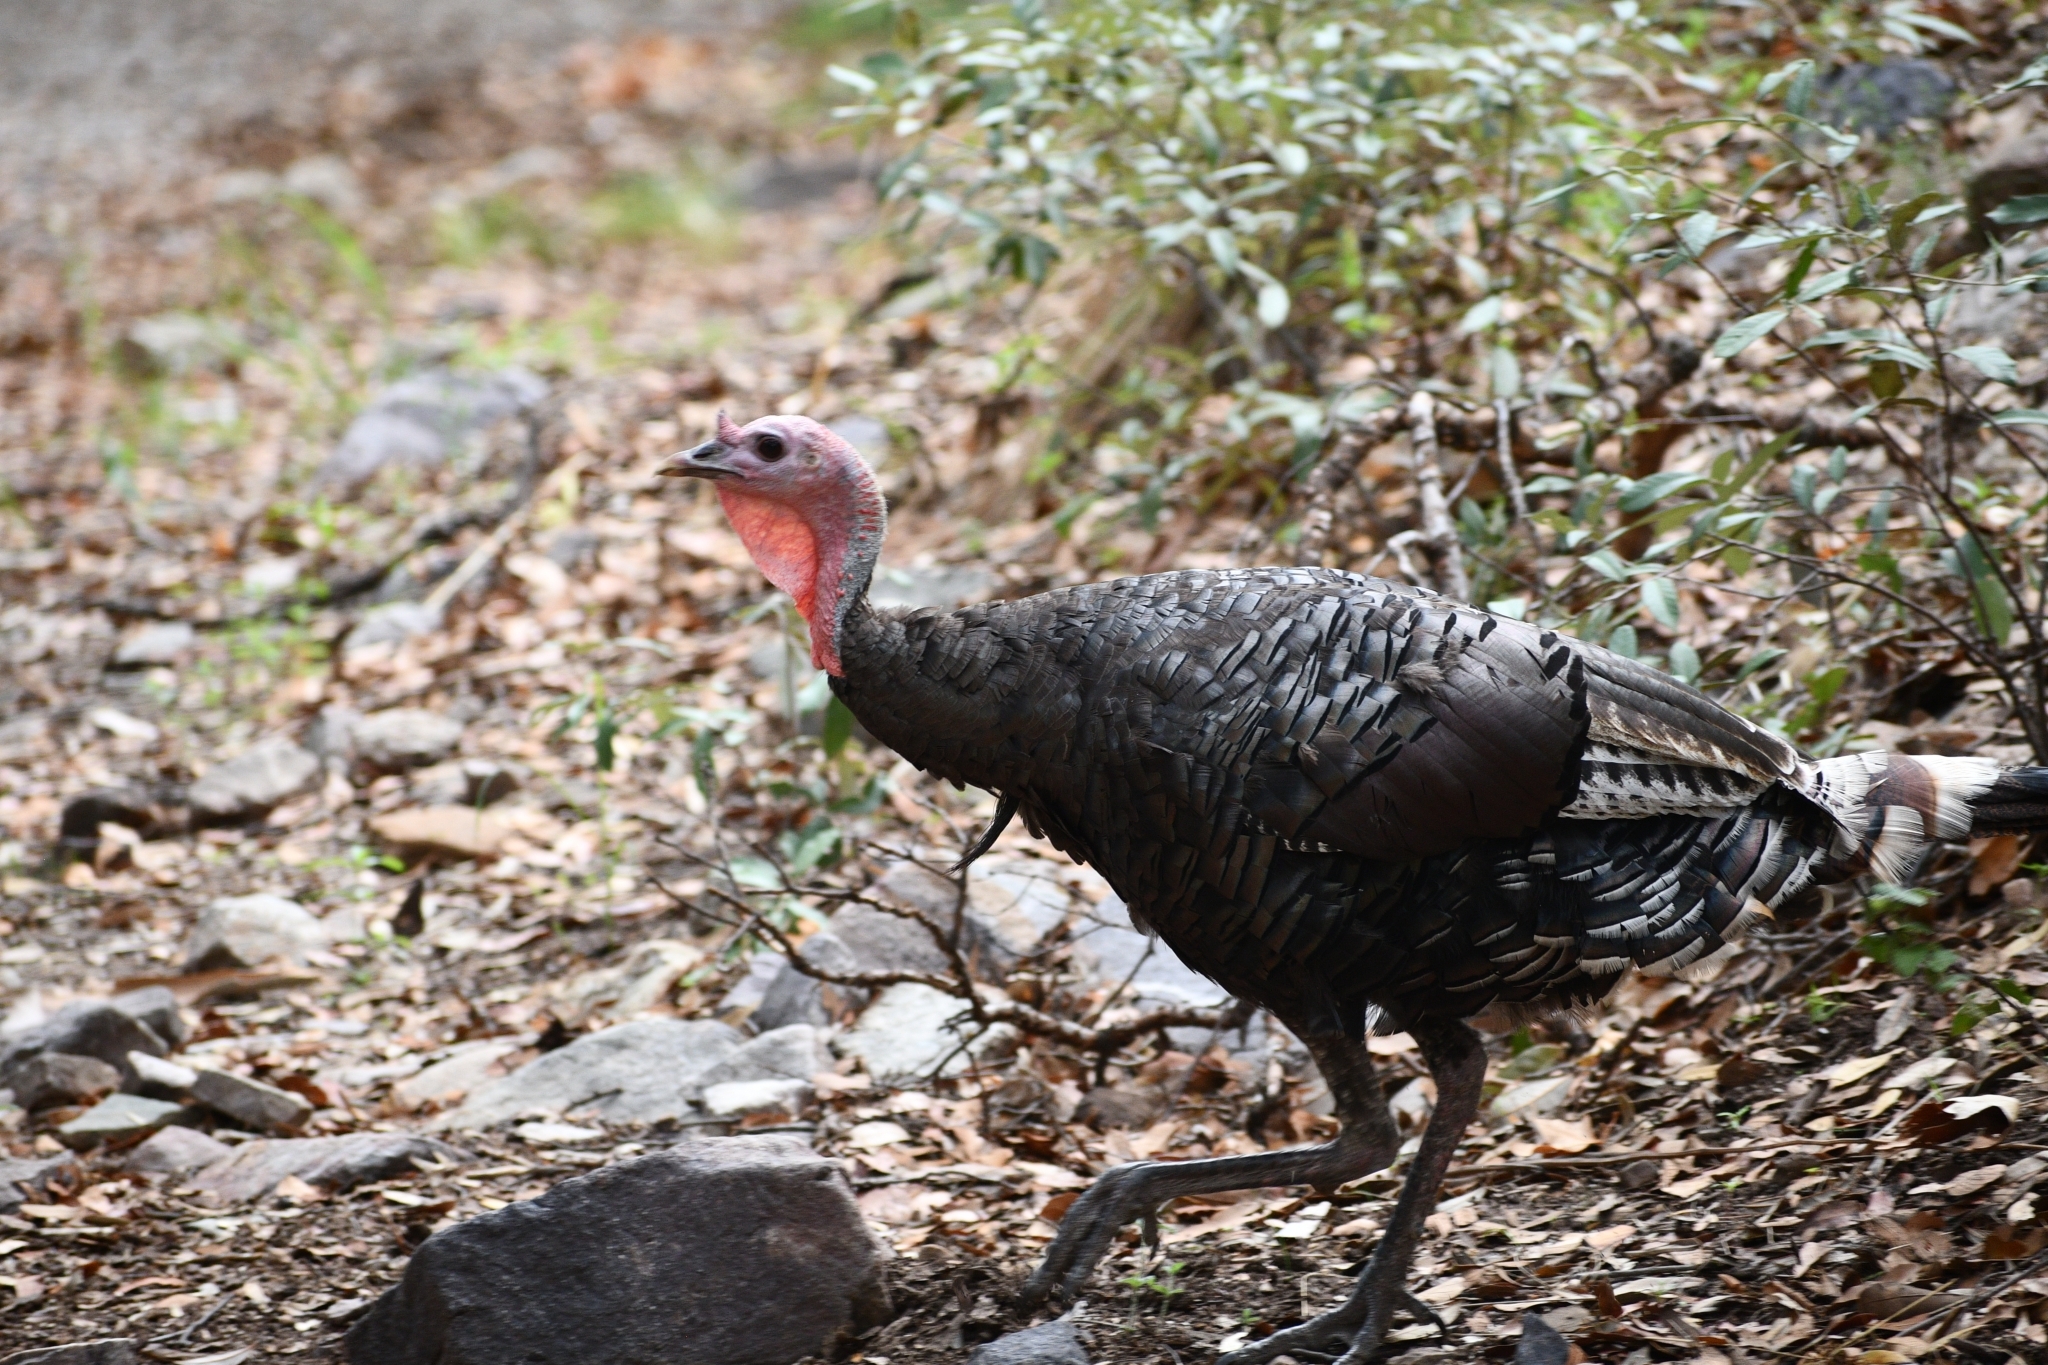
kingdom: Animalia
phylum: Chordata
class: Aves
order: Galliformes
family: Phasianidae
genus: Meleagris
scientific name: Meleagris gallopavo
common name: Wild turkey
